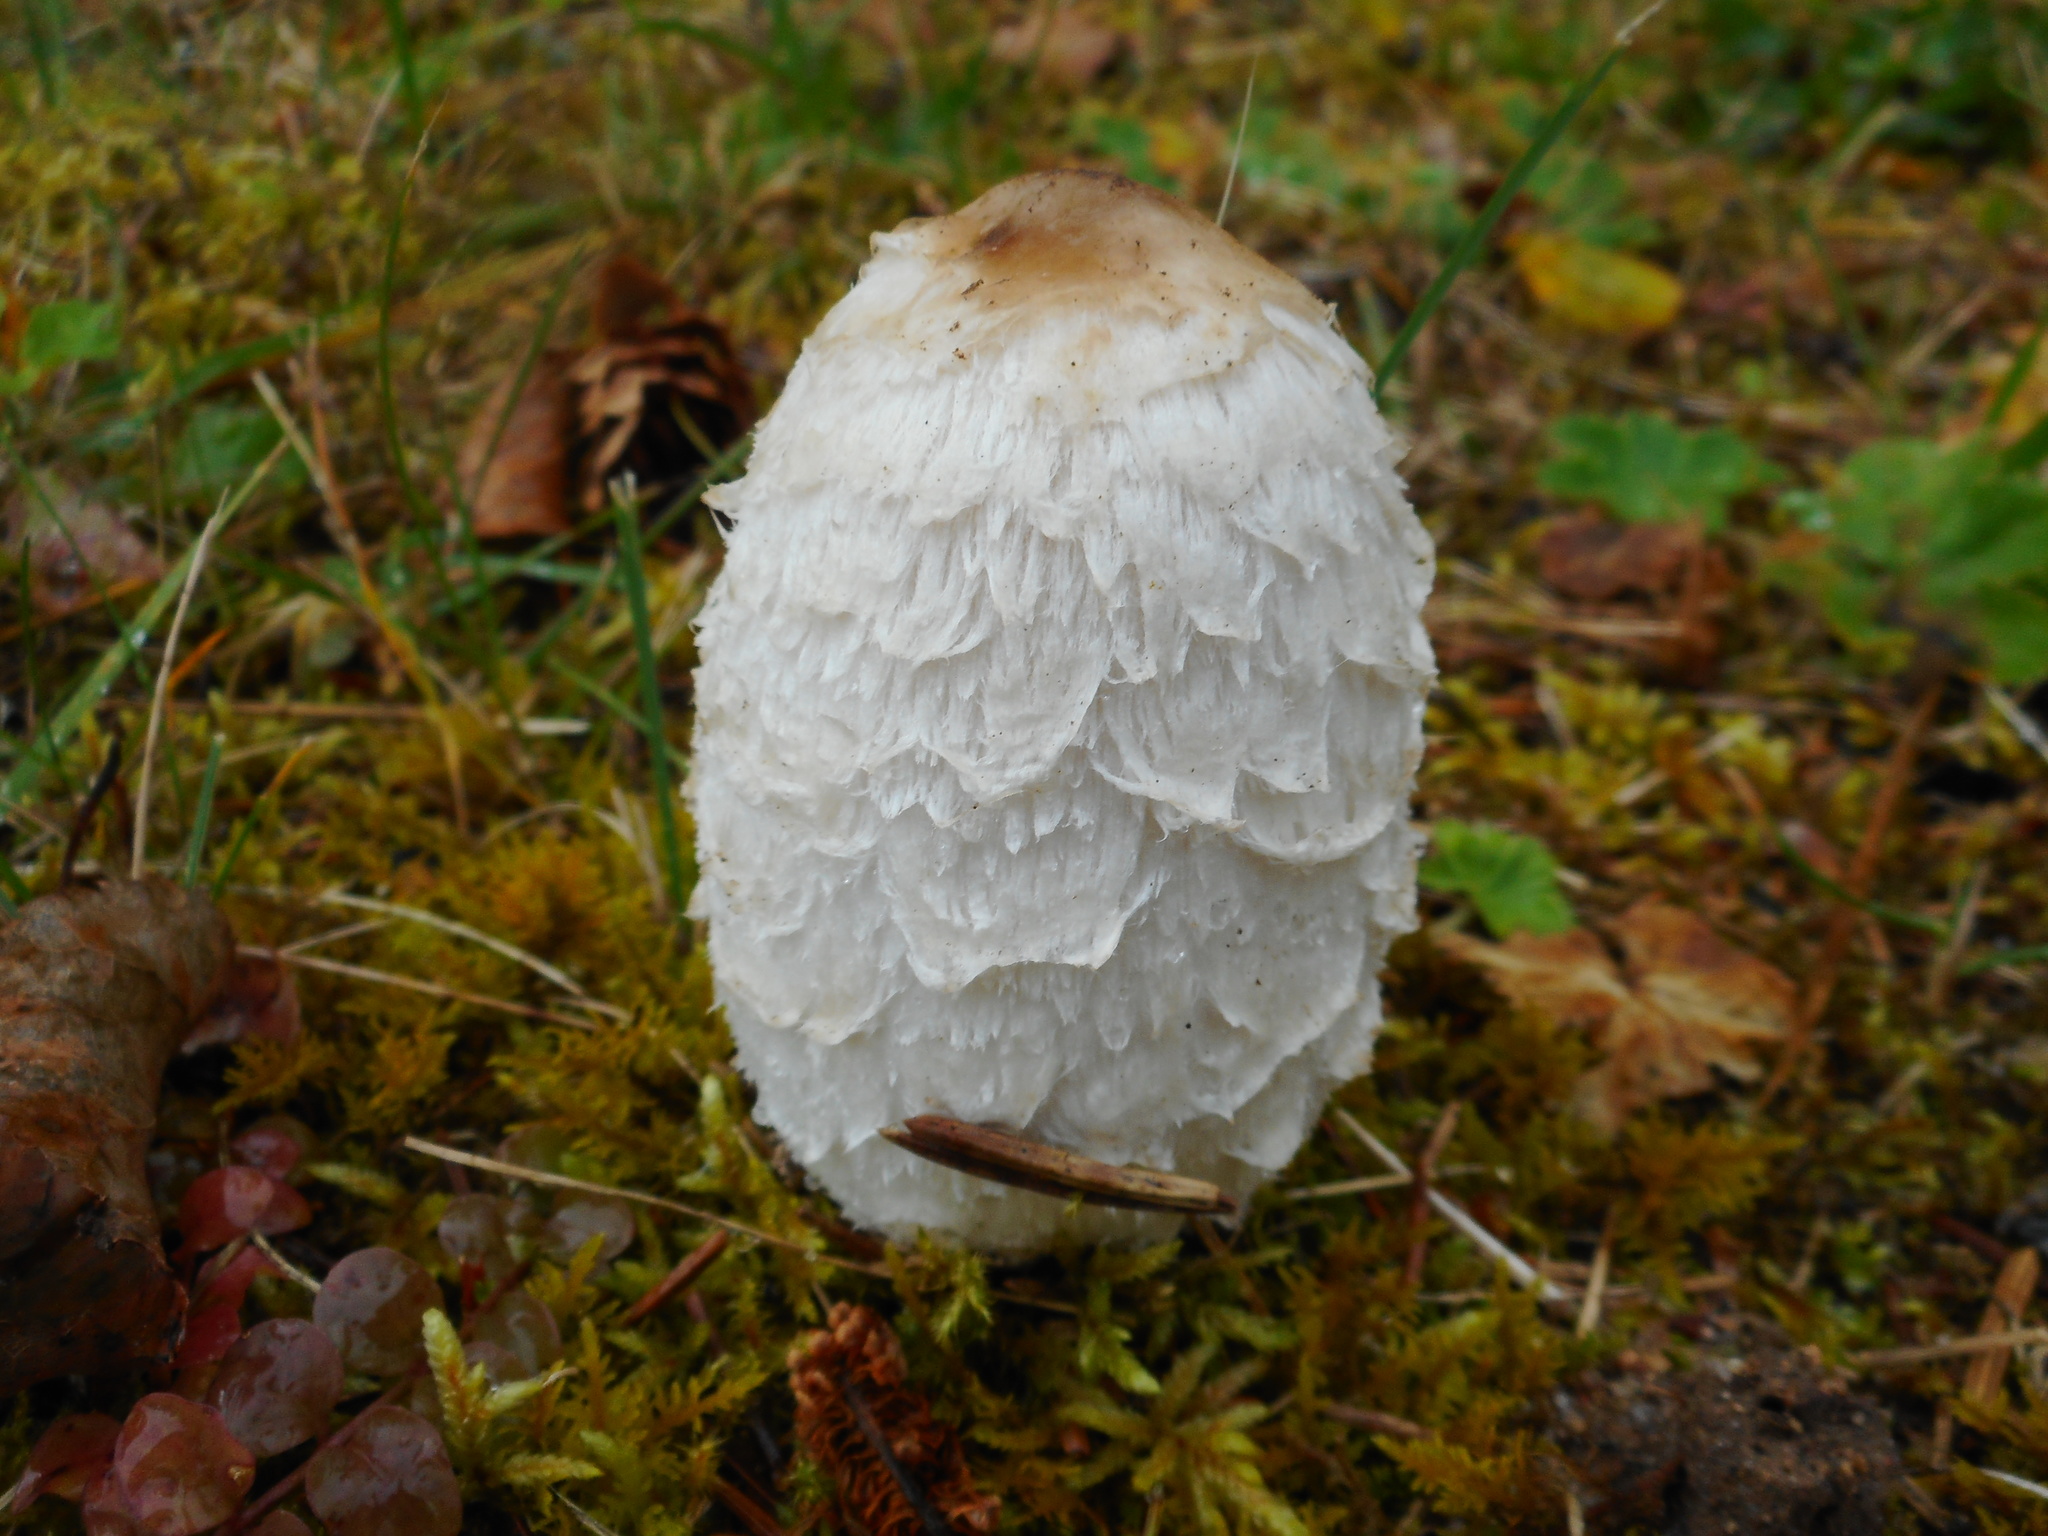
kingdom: Fungi
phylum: Basidiomycota
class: Agaricomycetes
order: Agaricales
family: Agaricaceae
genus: Coprinus
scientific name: Coprinus comatus
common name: Lawyer's wig
